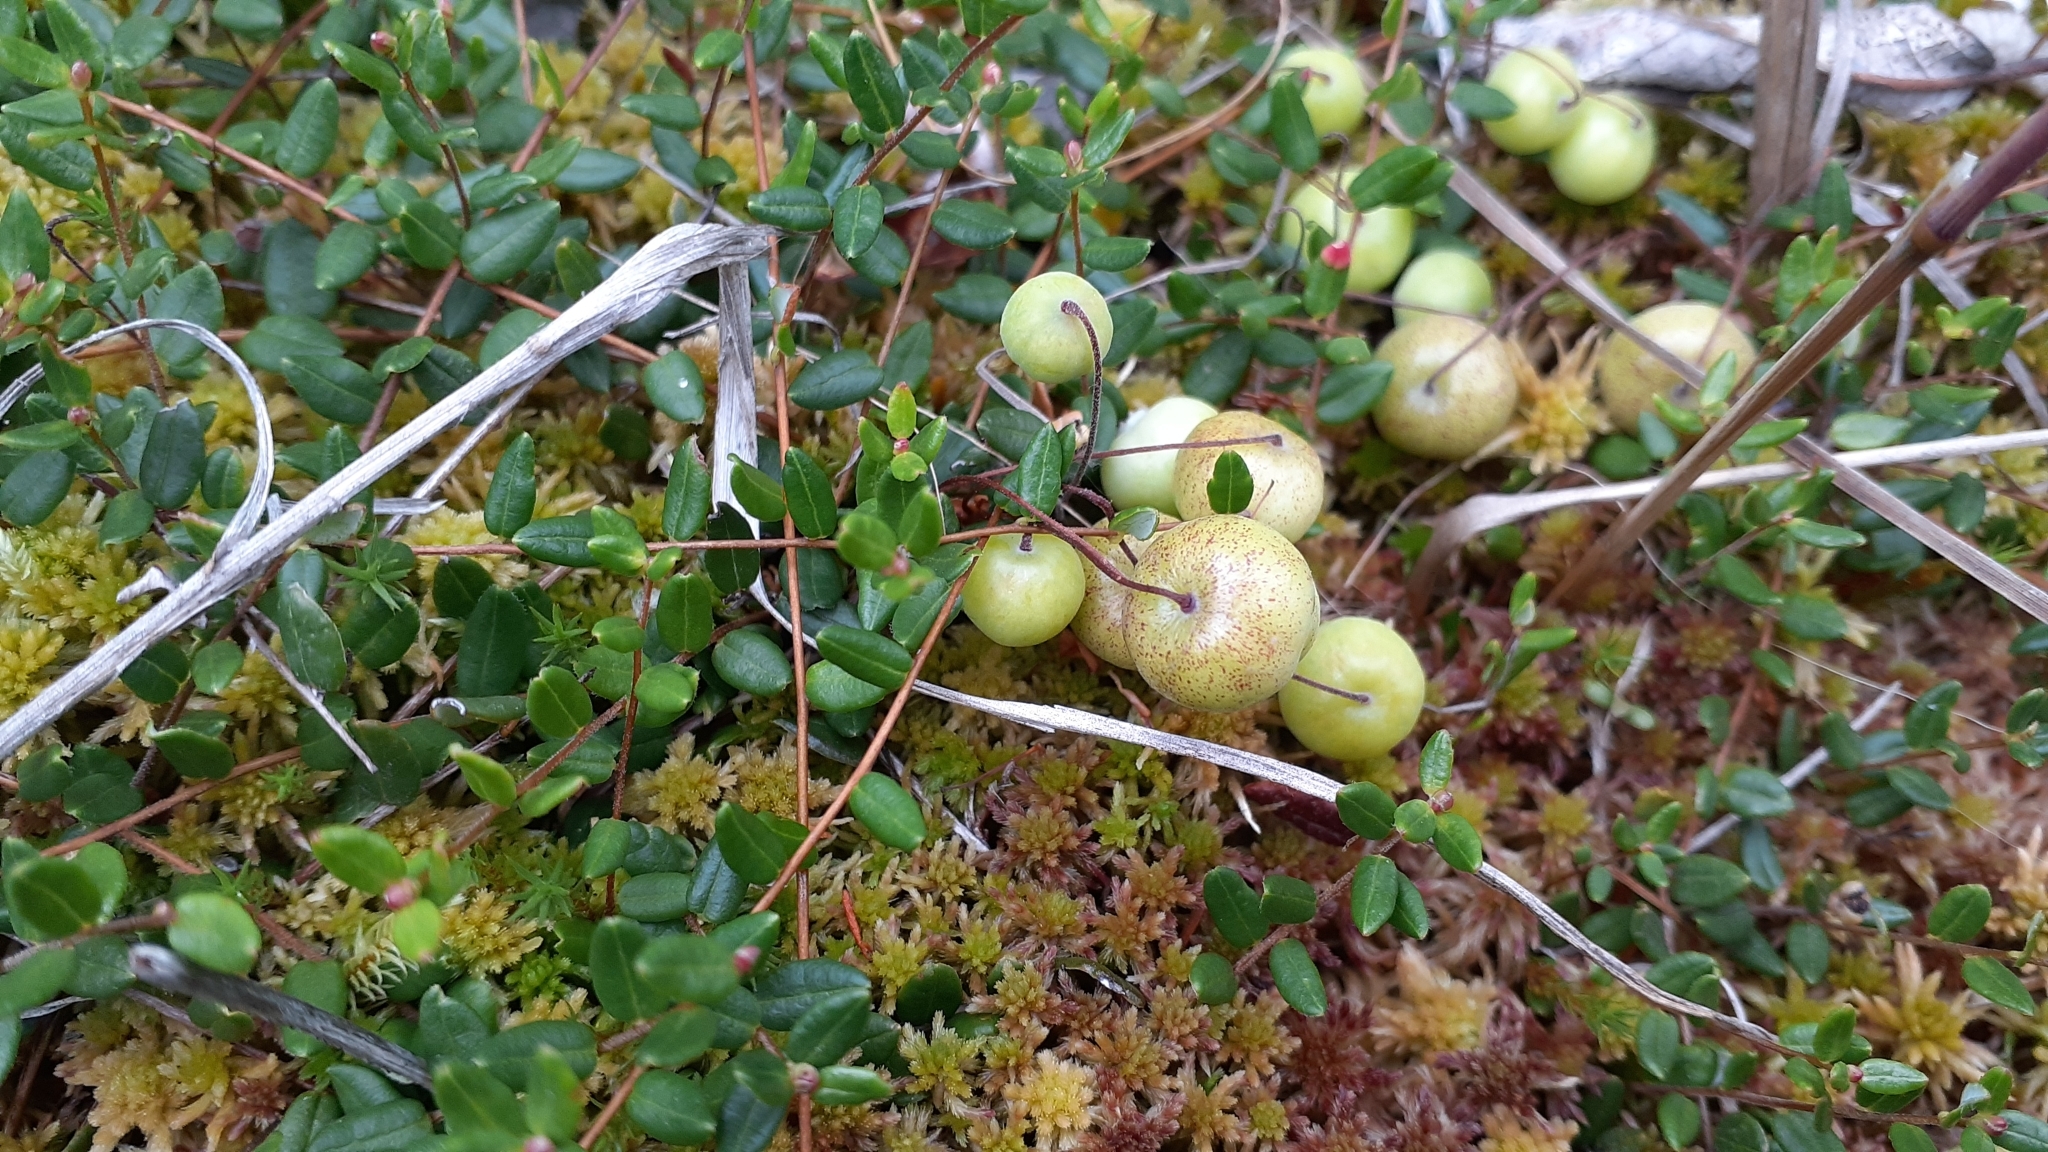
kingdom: Plantae
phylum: Tracheophyta
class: Magnoliopsida
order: Ericales
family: Ericaceae
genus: Vaccinium
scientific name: Vaccinium oxycoccos
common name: Cranberry
